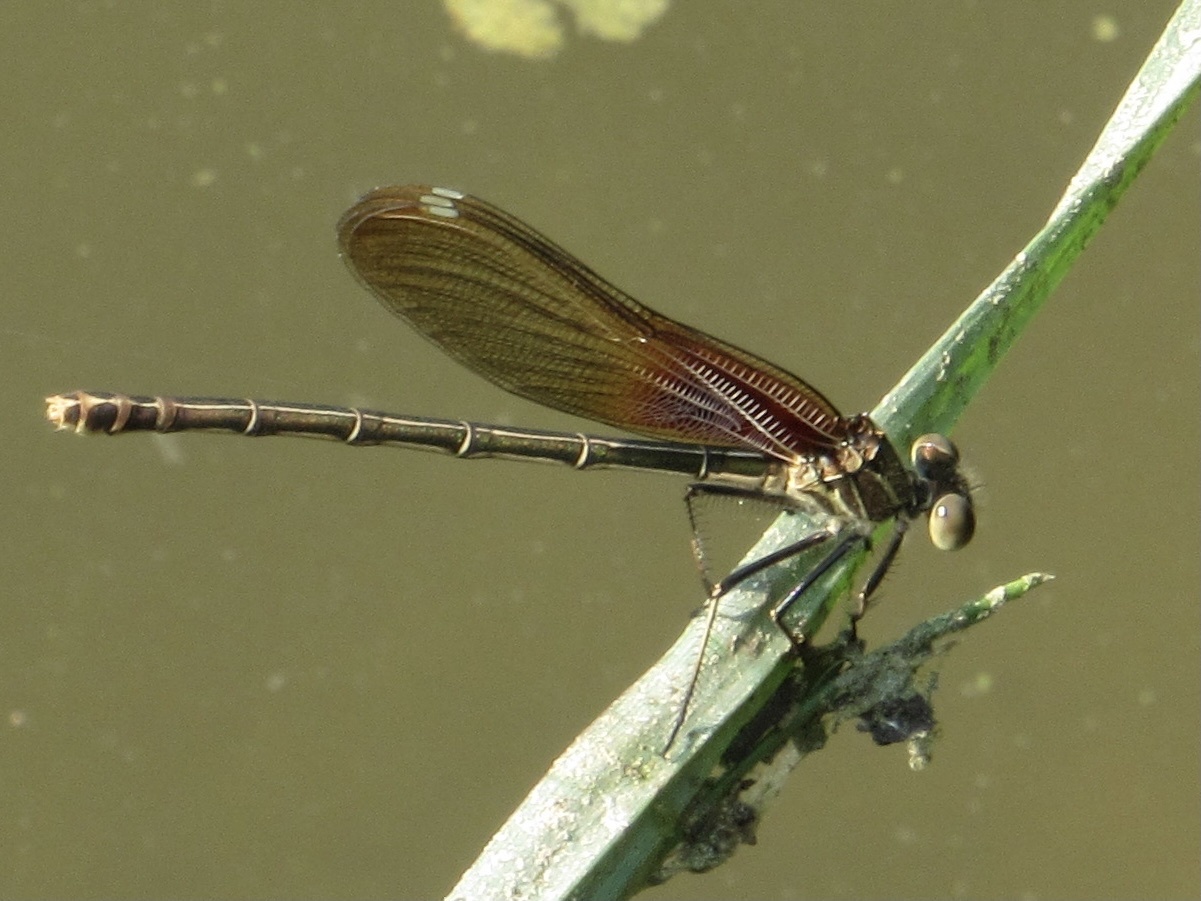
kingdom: Animalia
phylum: Arthropoda
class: Insecta
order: Odonata
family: Calopterygidae
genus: Hetaerina
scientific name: Hetaerina americana
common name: American rubyspot
